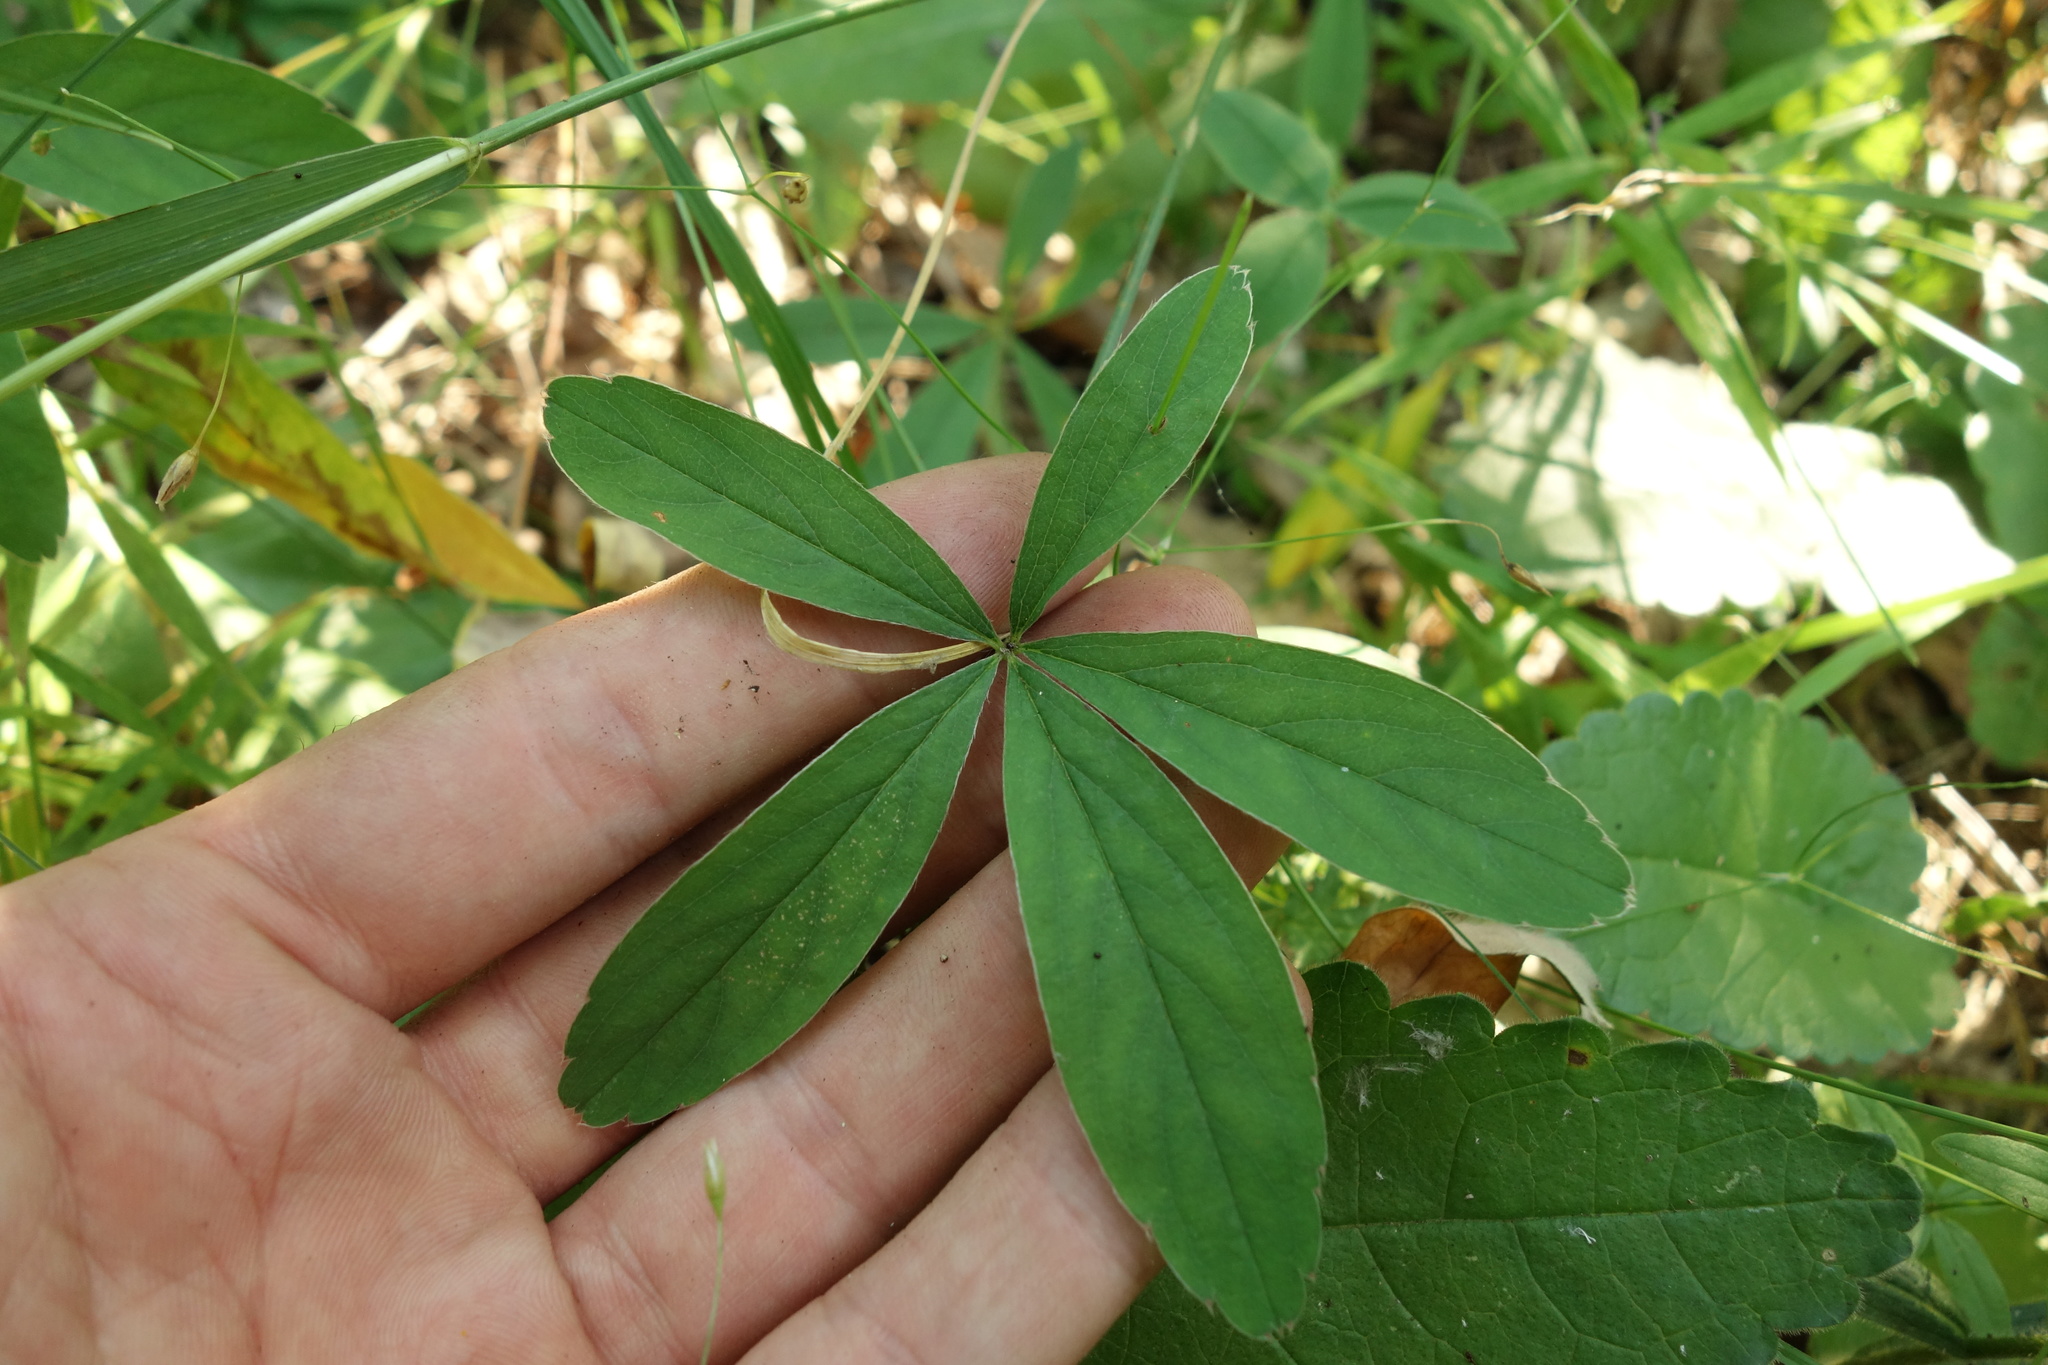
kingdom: Plantae
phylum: Tracheophyta
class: Magnoliopsida
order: Rosales
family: Rosaceae
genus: Potentilla
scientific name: Potentilla alba
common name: White cinquefoil
